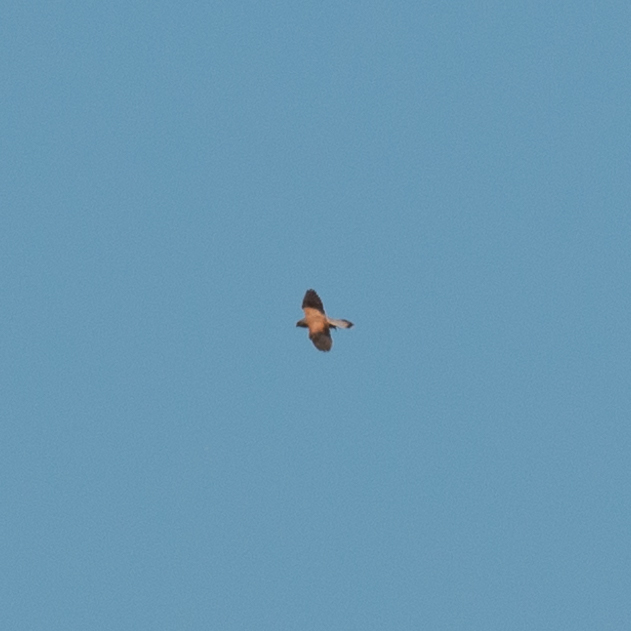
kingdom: Animalia
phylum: Chordata
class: Aves
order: Falconiformes
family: Falconidae
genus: Falco
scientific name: Falco naumanni
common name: Lesser kestrel
